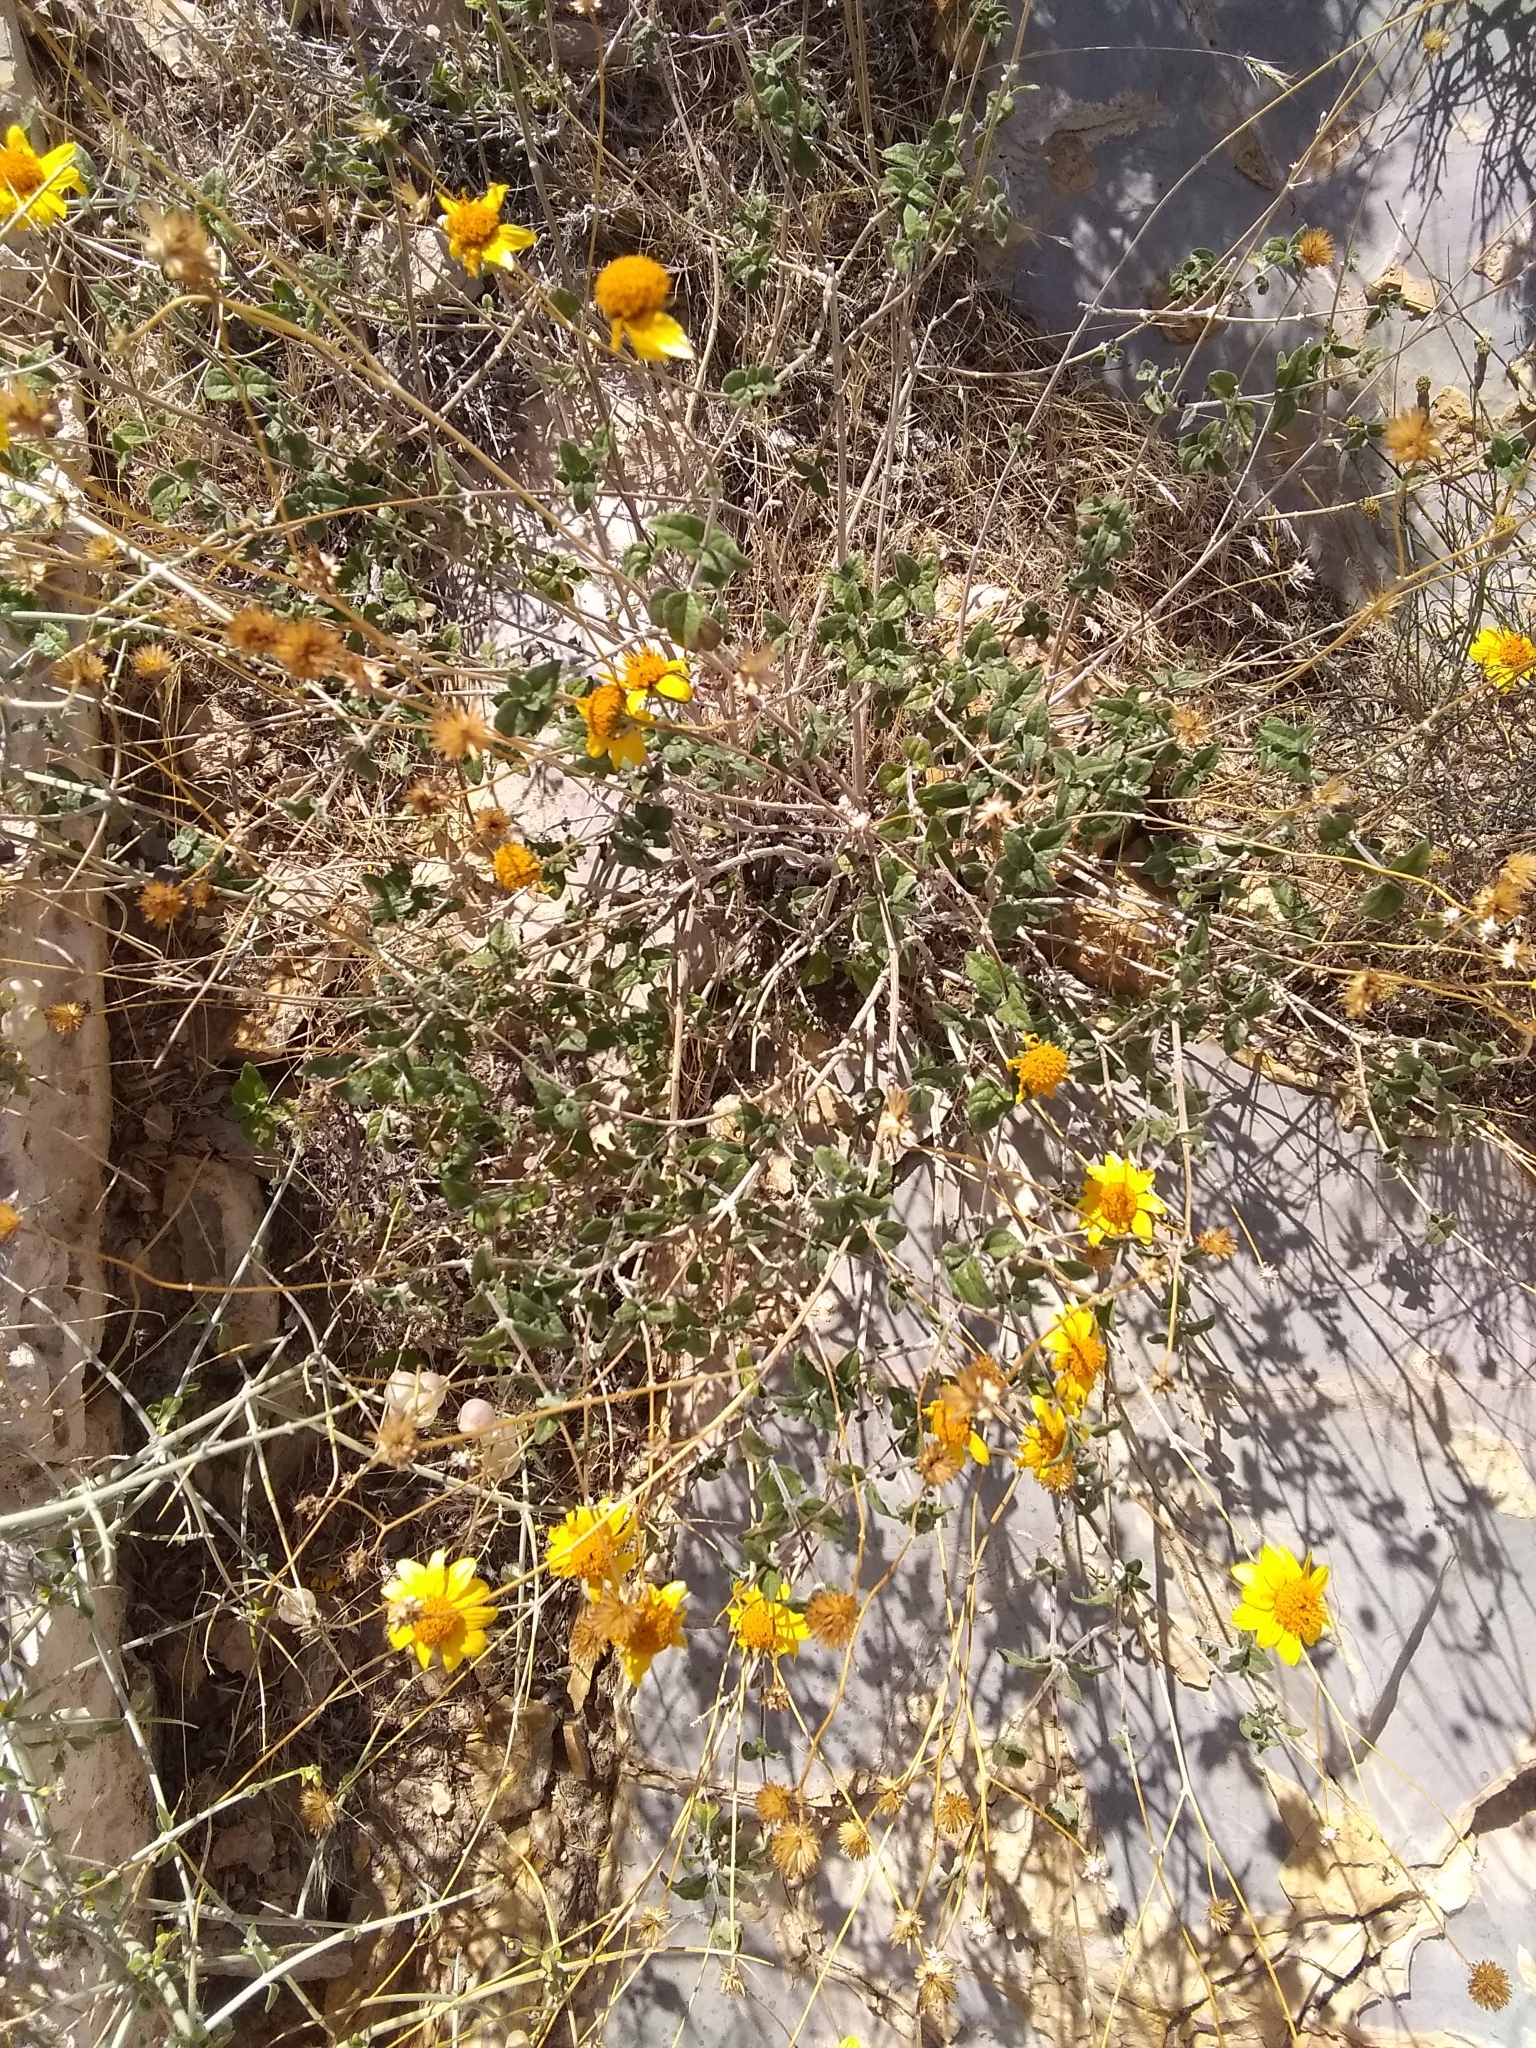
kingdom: Plantae
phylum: Tracheophyta
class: Magnoliopsida
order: Asterales
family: Asteraceae
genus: Bahiopsis
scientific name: Bahiopsis parishii
